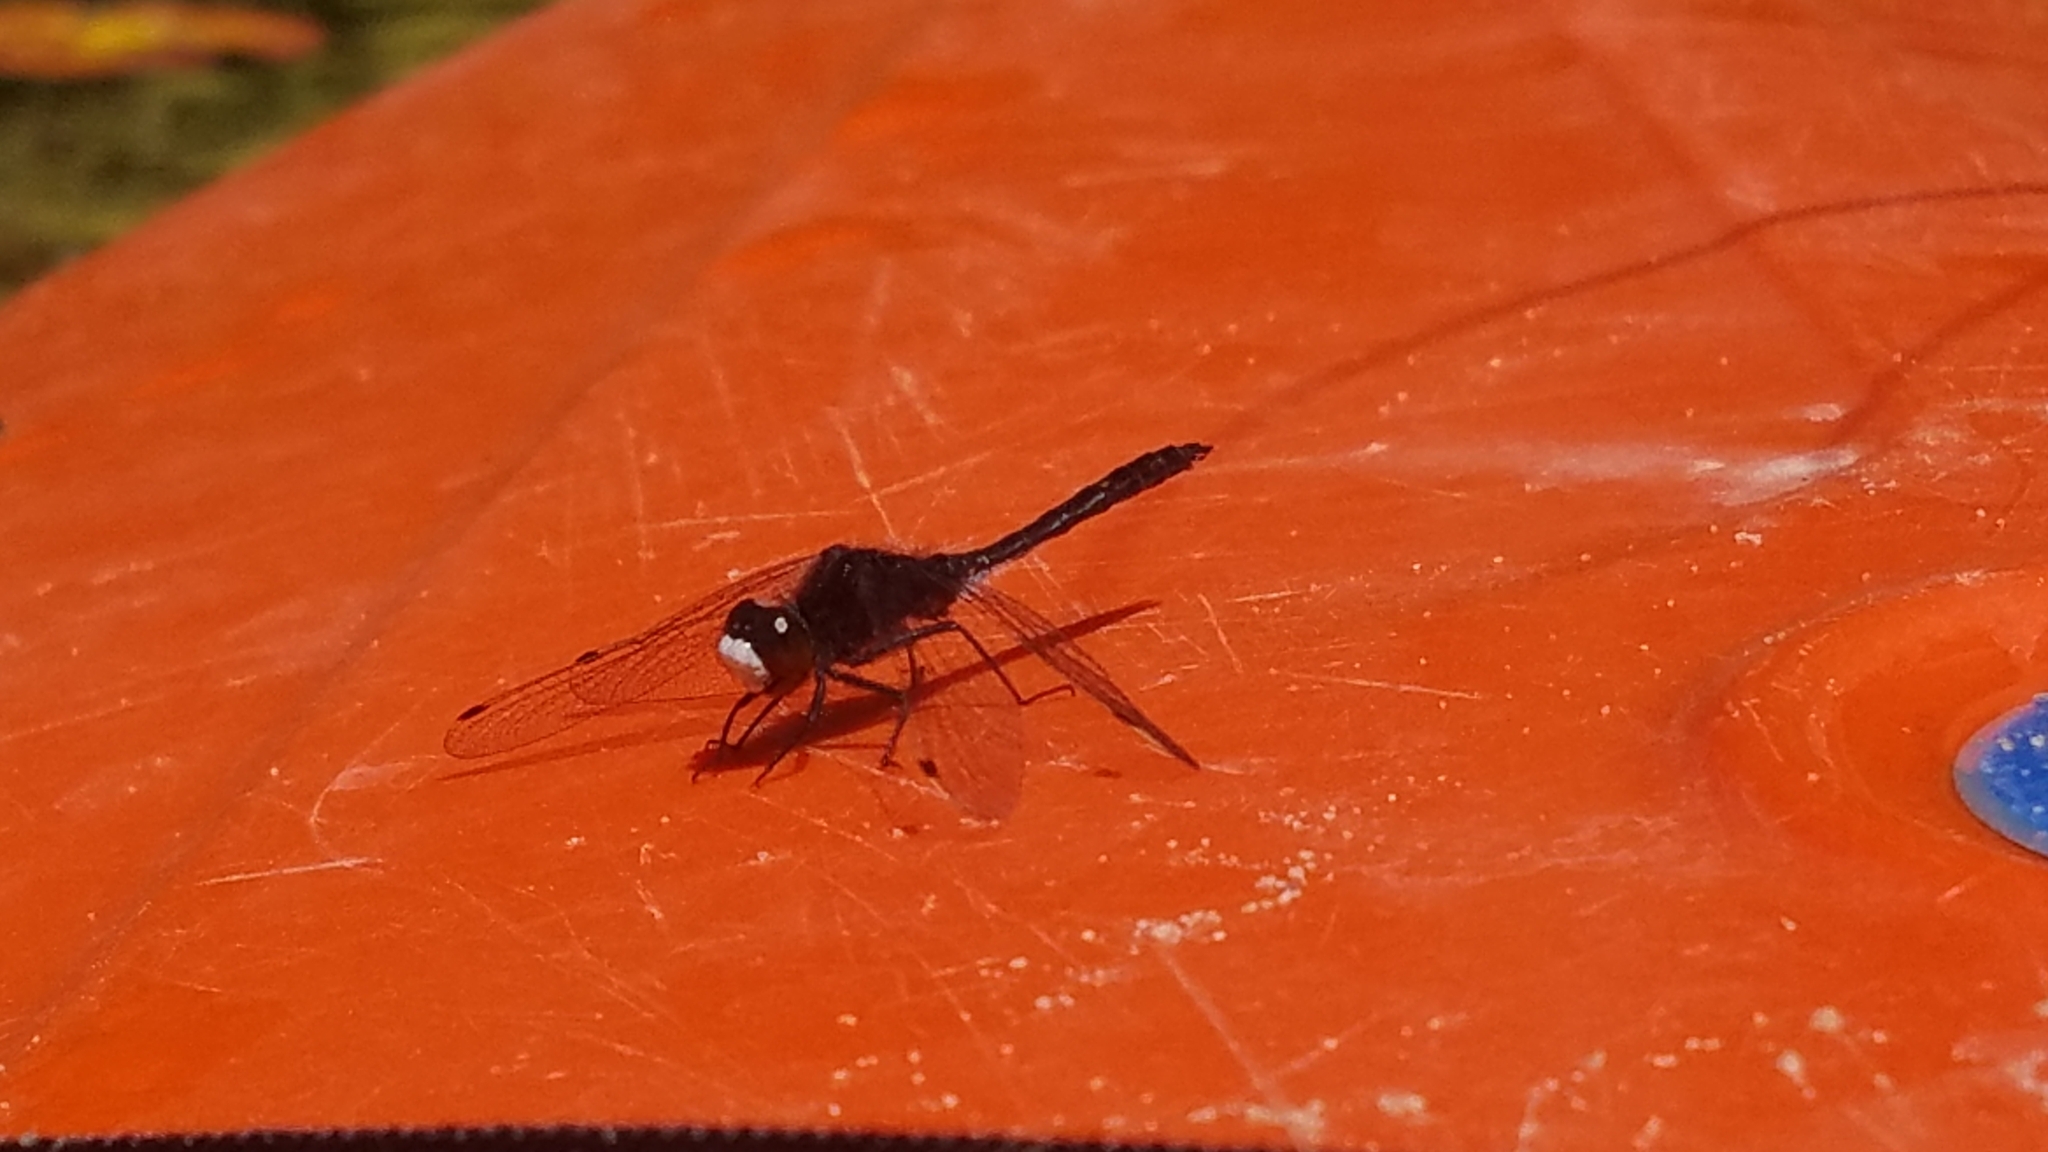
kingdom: Animalia
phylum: Arthropoda
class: Insecta
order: Odonata
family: Libellulidae
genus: Leucorrhinia
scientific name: Leucorrhinia intacta
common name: Dot-tailed whiteface
